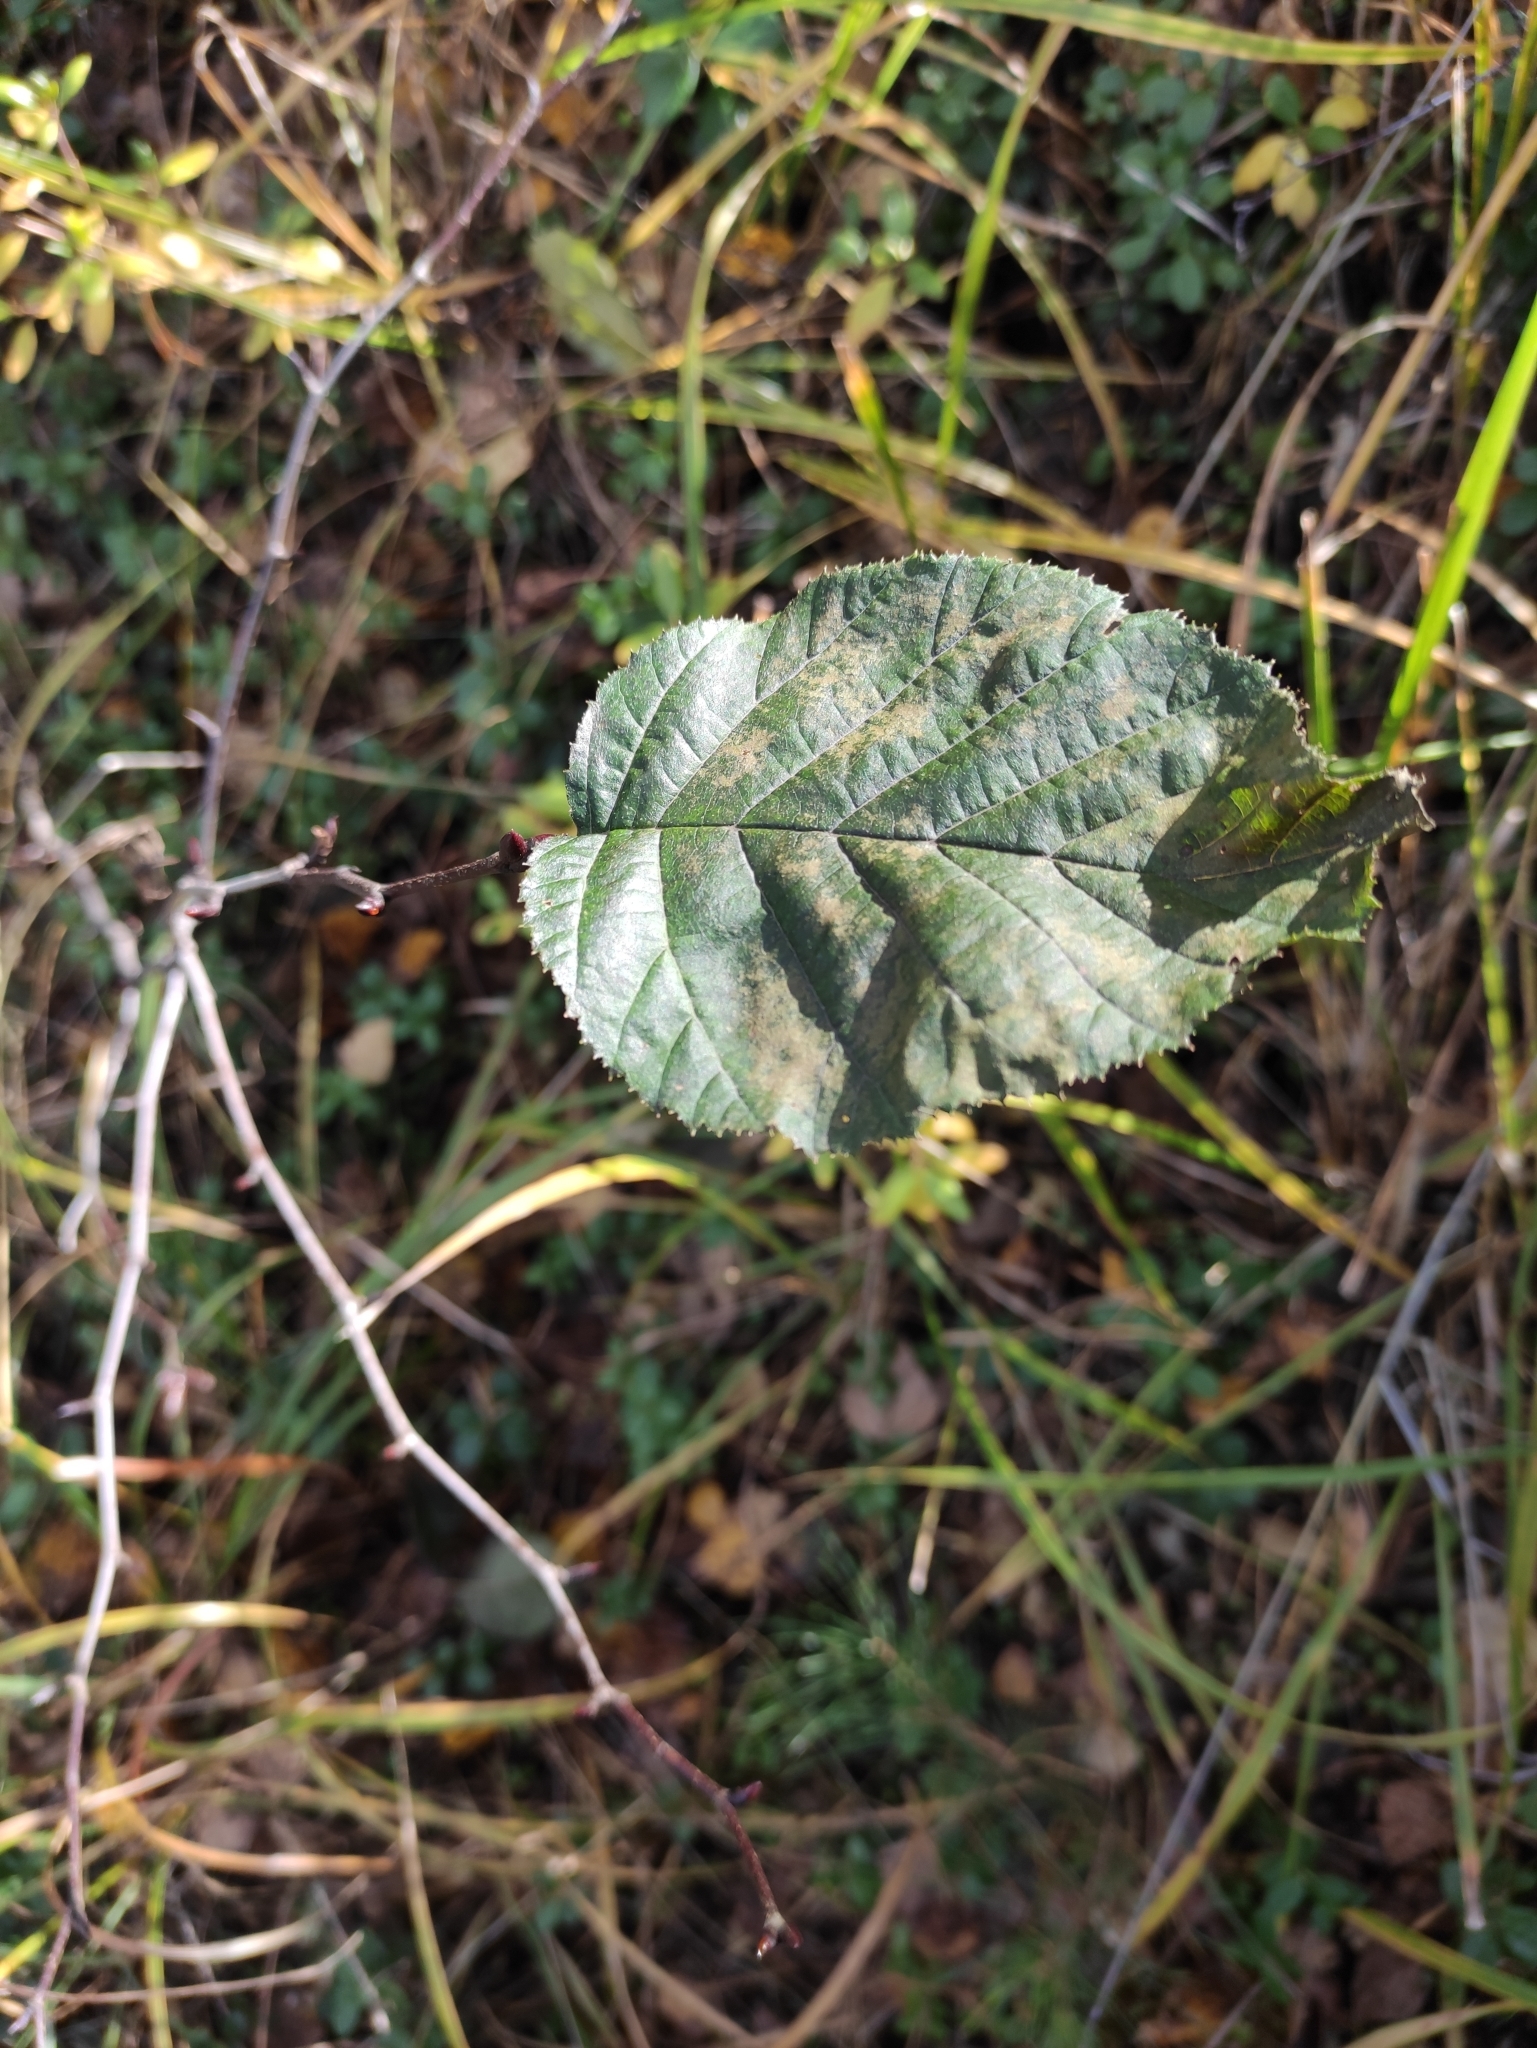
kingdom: Plantae
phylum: Tracheophyta
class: Magnoliopsida
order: Fagales
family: Betulaceae
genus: Alnus
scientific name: Alnus alnobetula
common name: Green alder
